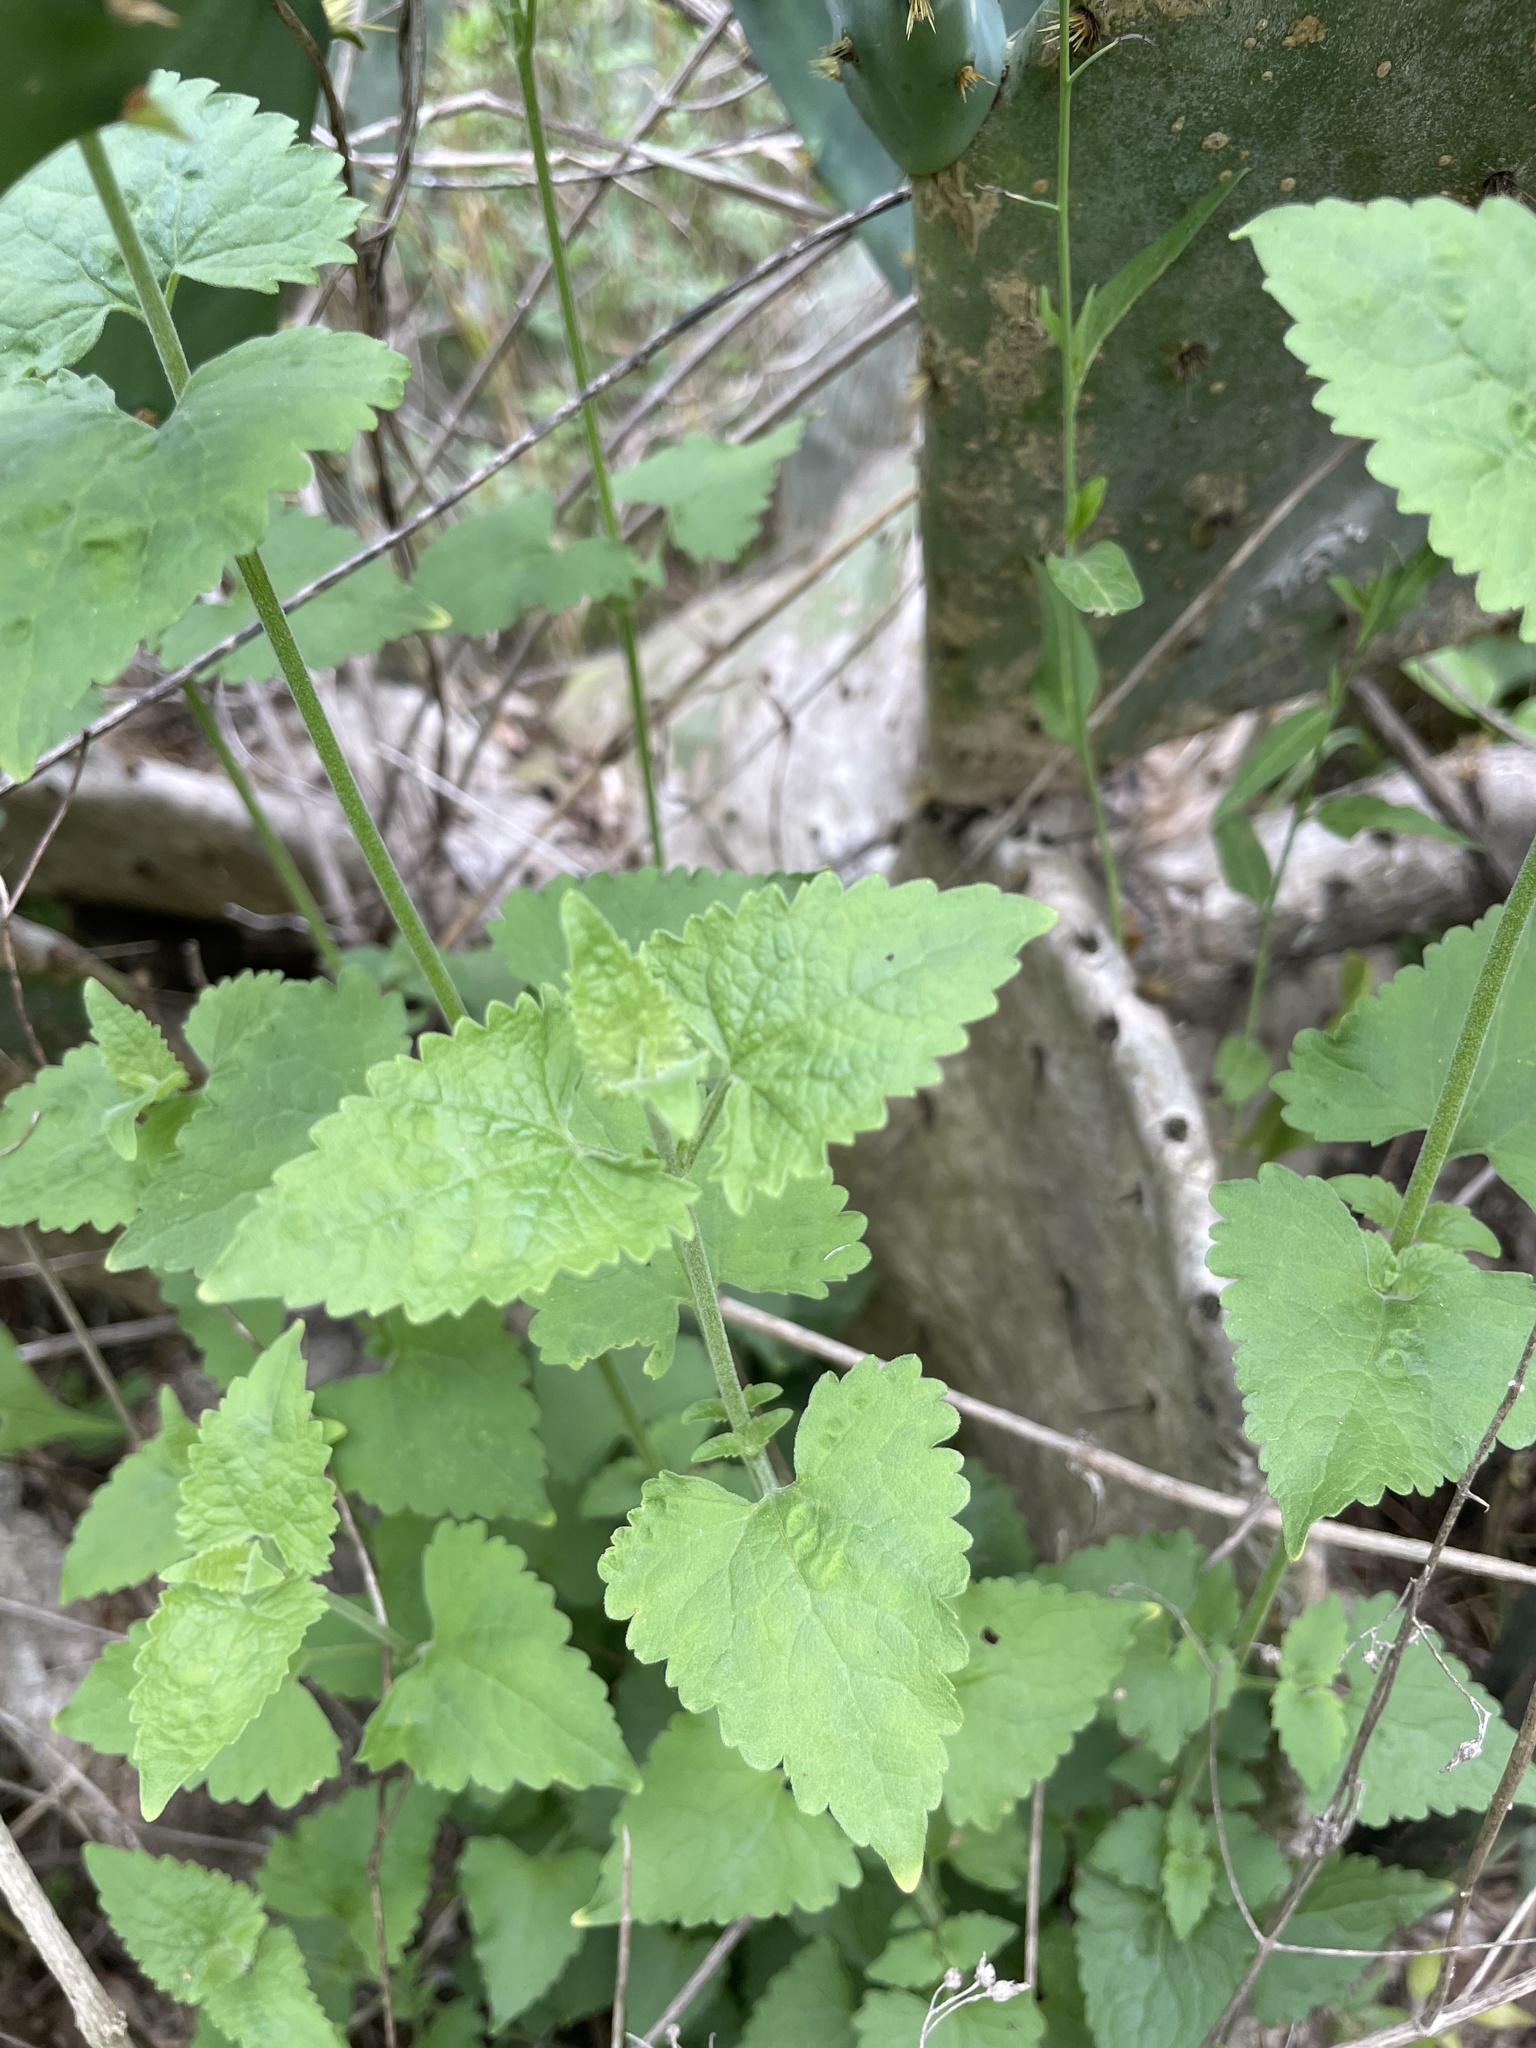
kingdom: Plantae
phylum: Tracheophyta
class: Magnoliopsida
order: Asterales
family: Asteraceae
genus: Fleischmannia
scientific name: Fleischmannia incarnata
